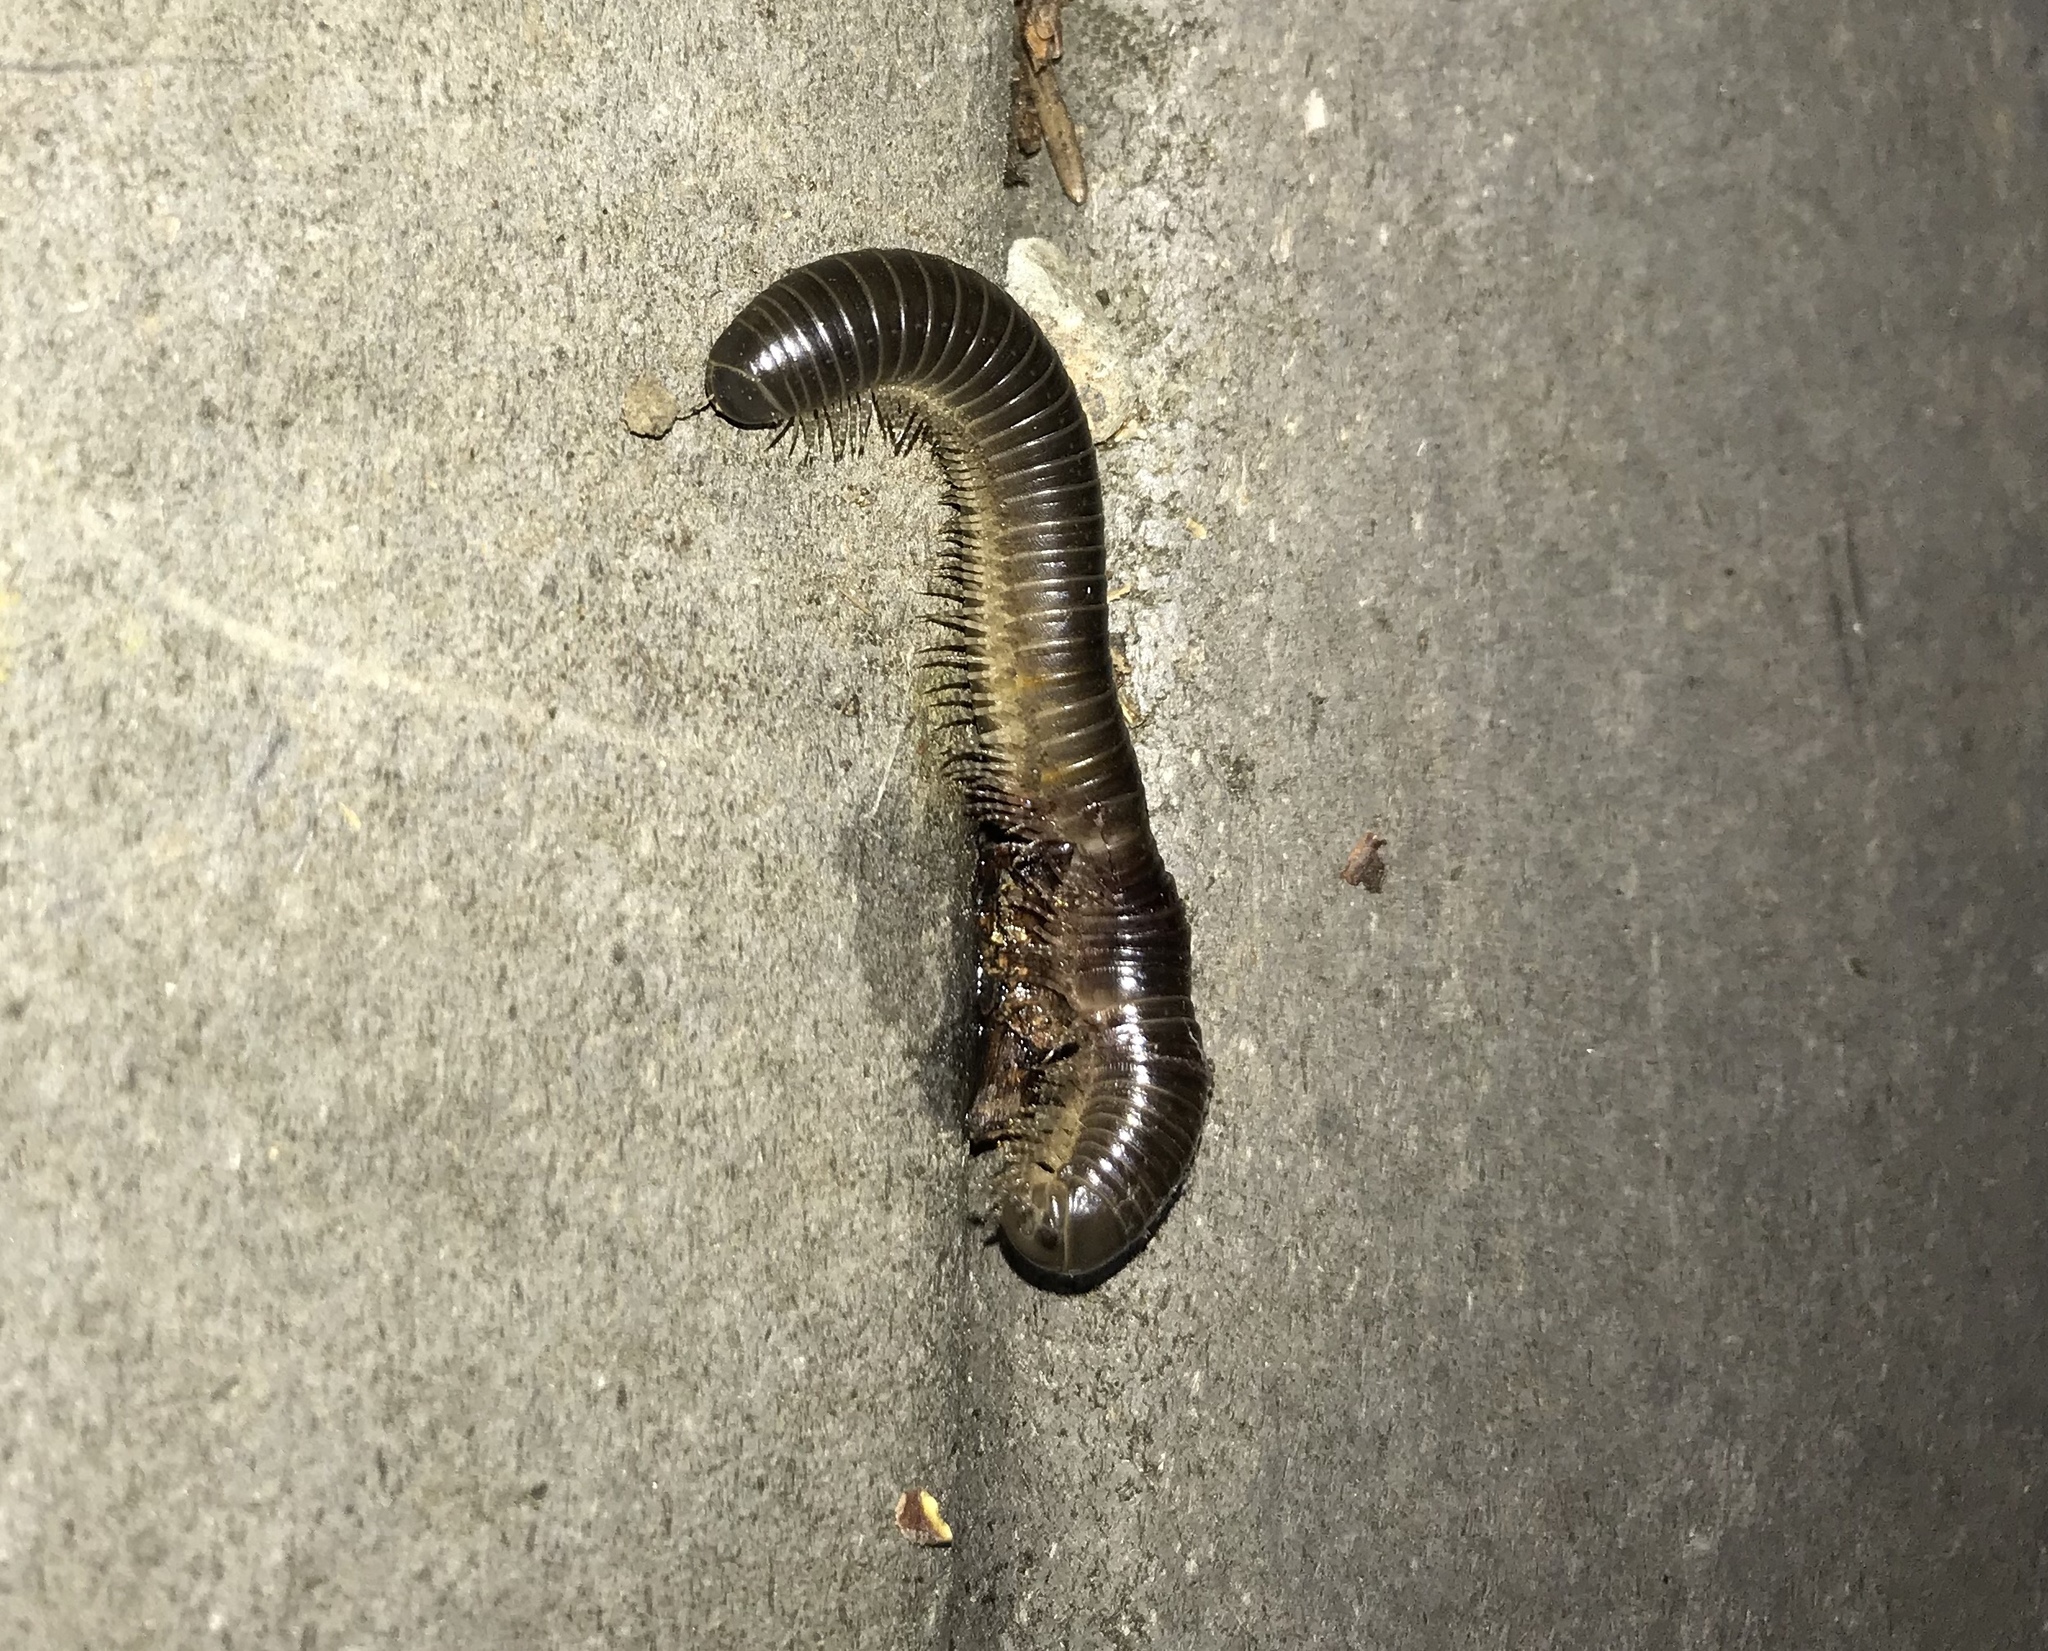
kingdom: Animalia
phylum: Arthropoda
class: Diplopoda
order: Spirobolida
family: Spirobolidae
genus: Tylobolus
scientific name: Tylobolus uncigerus
